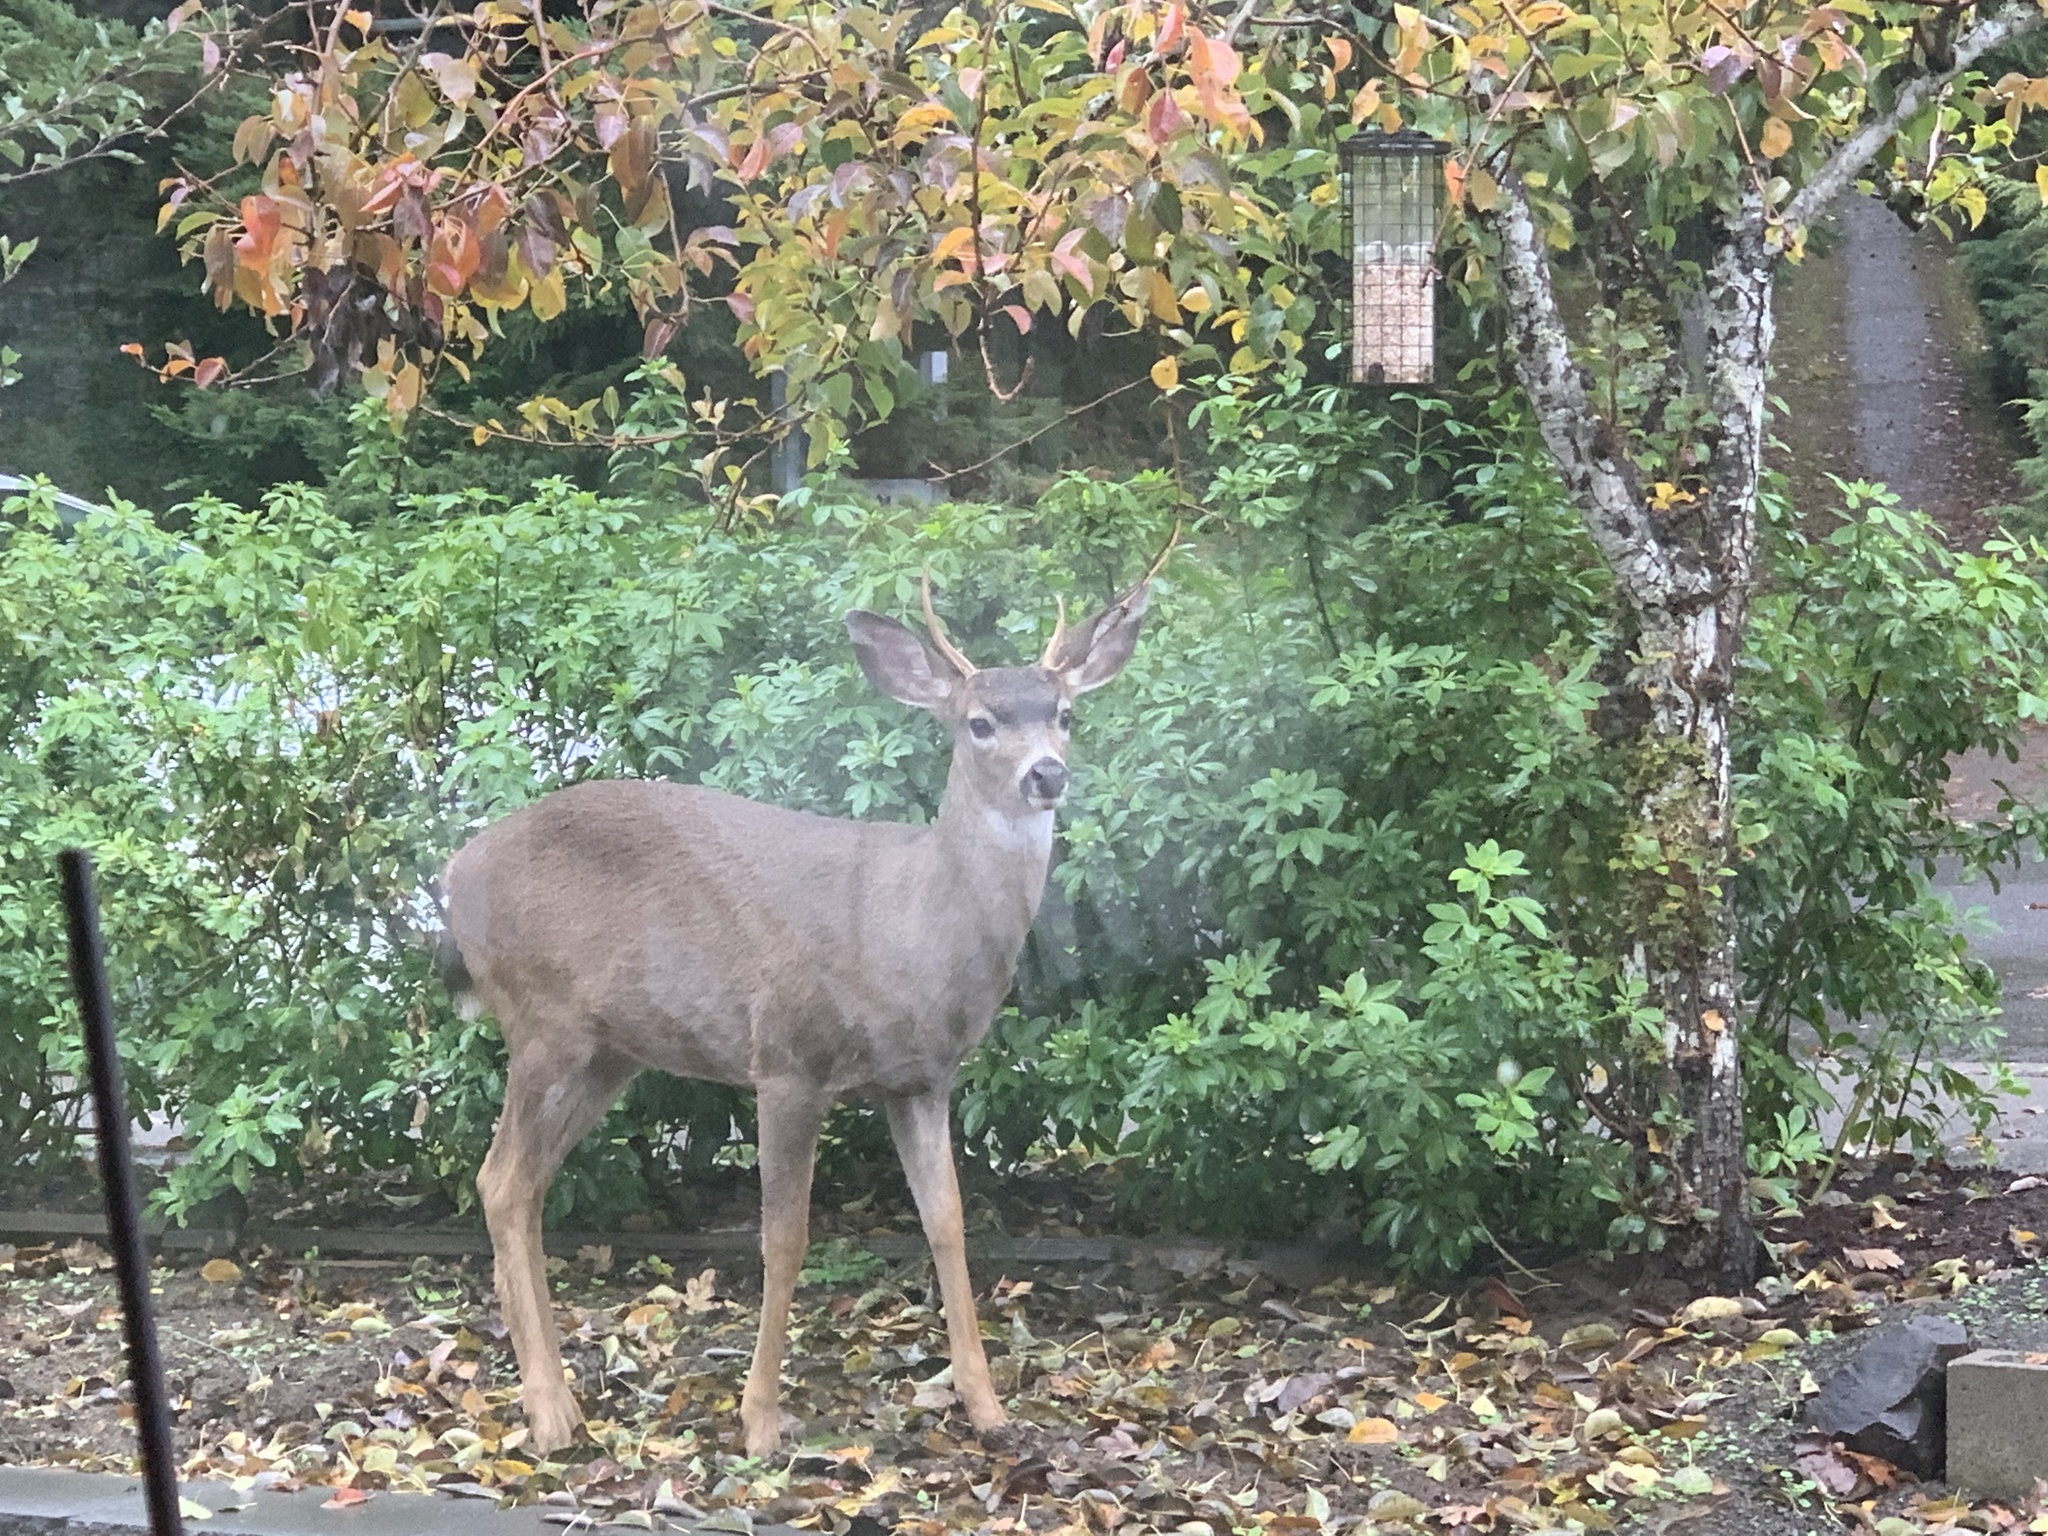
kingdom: Animalia
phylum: Chordata
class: Mammalia
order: Artiodactyla
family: Cervidae
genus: Odocoileus
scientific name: Odocoileus hemionus
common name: Mule deer
